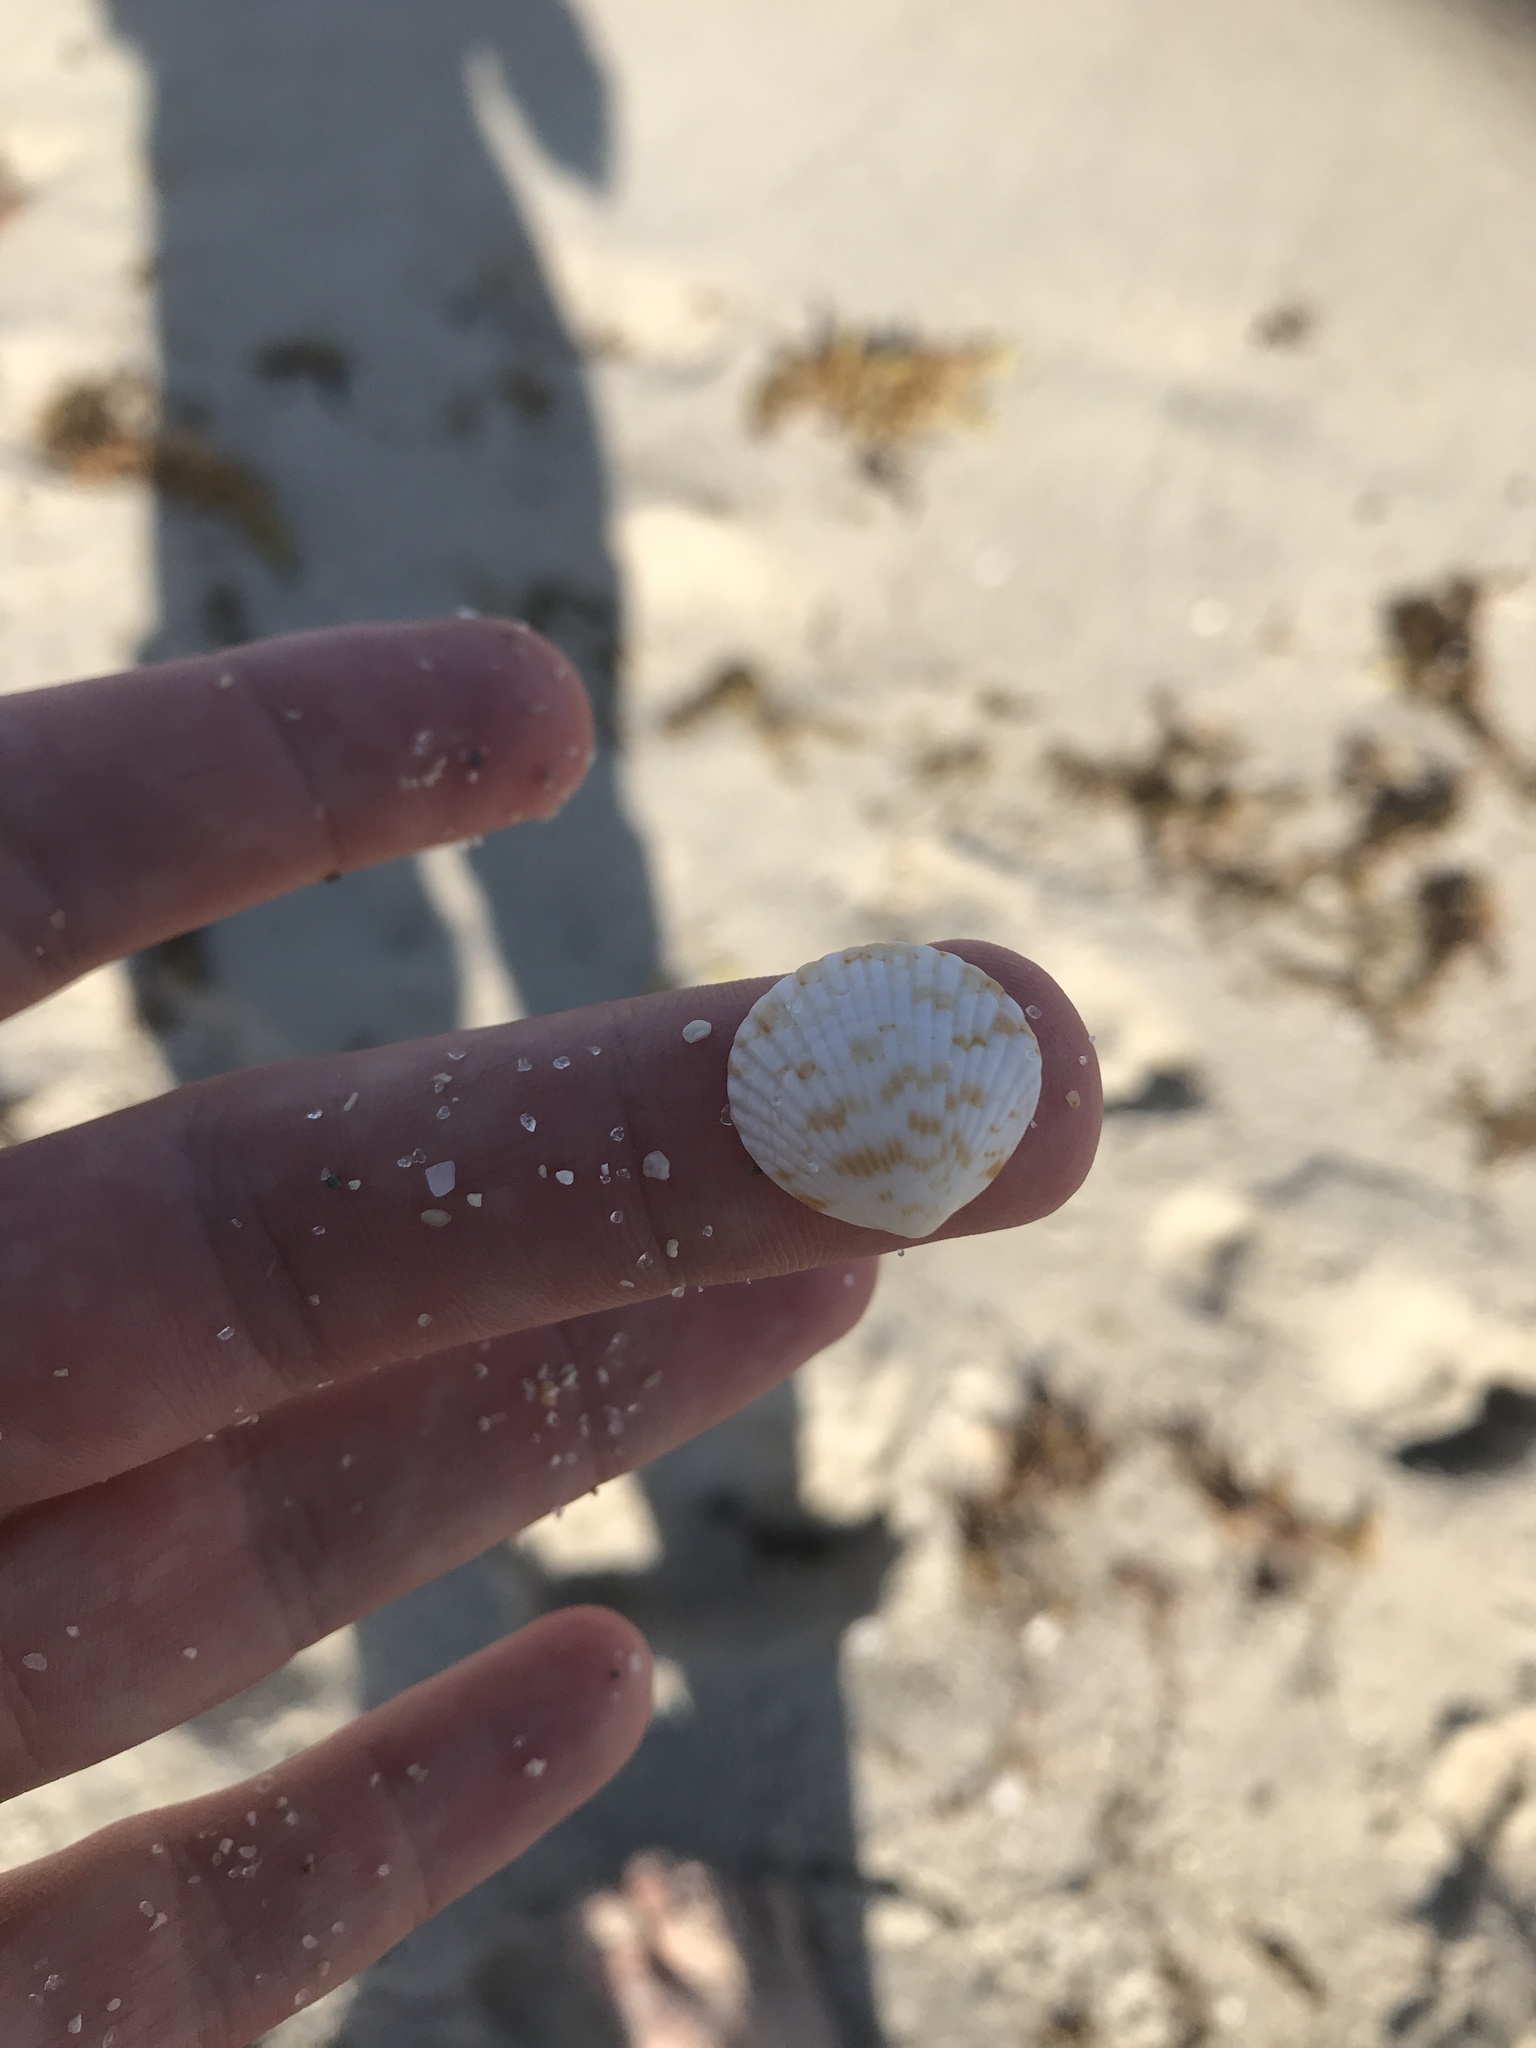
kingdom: Animalia
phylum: Mollusca
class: Bivalvia
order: Arcida
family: Glycymerididae
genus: Tucetona
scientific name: Tucetona pectinata
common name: Comb bittersweet
